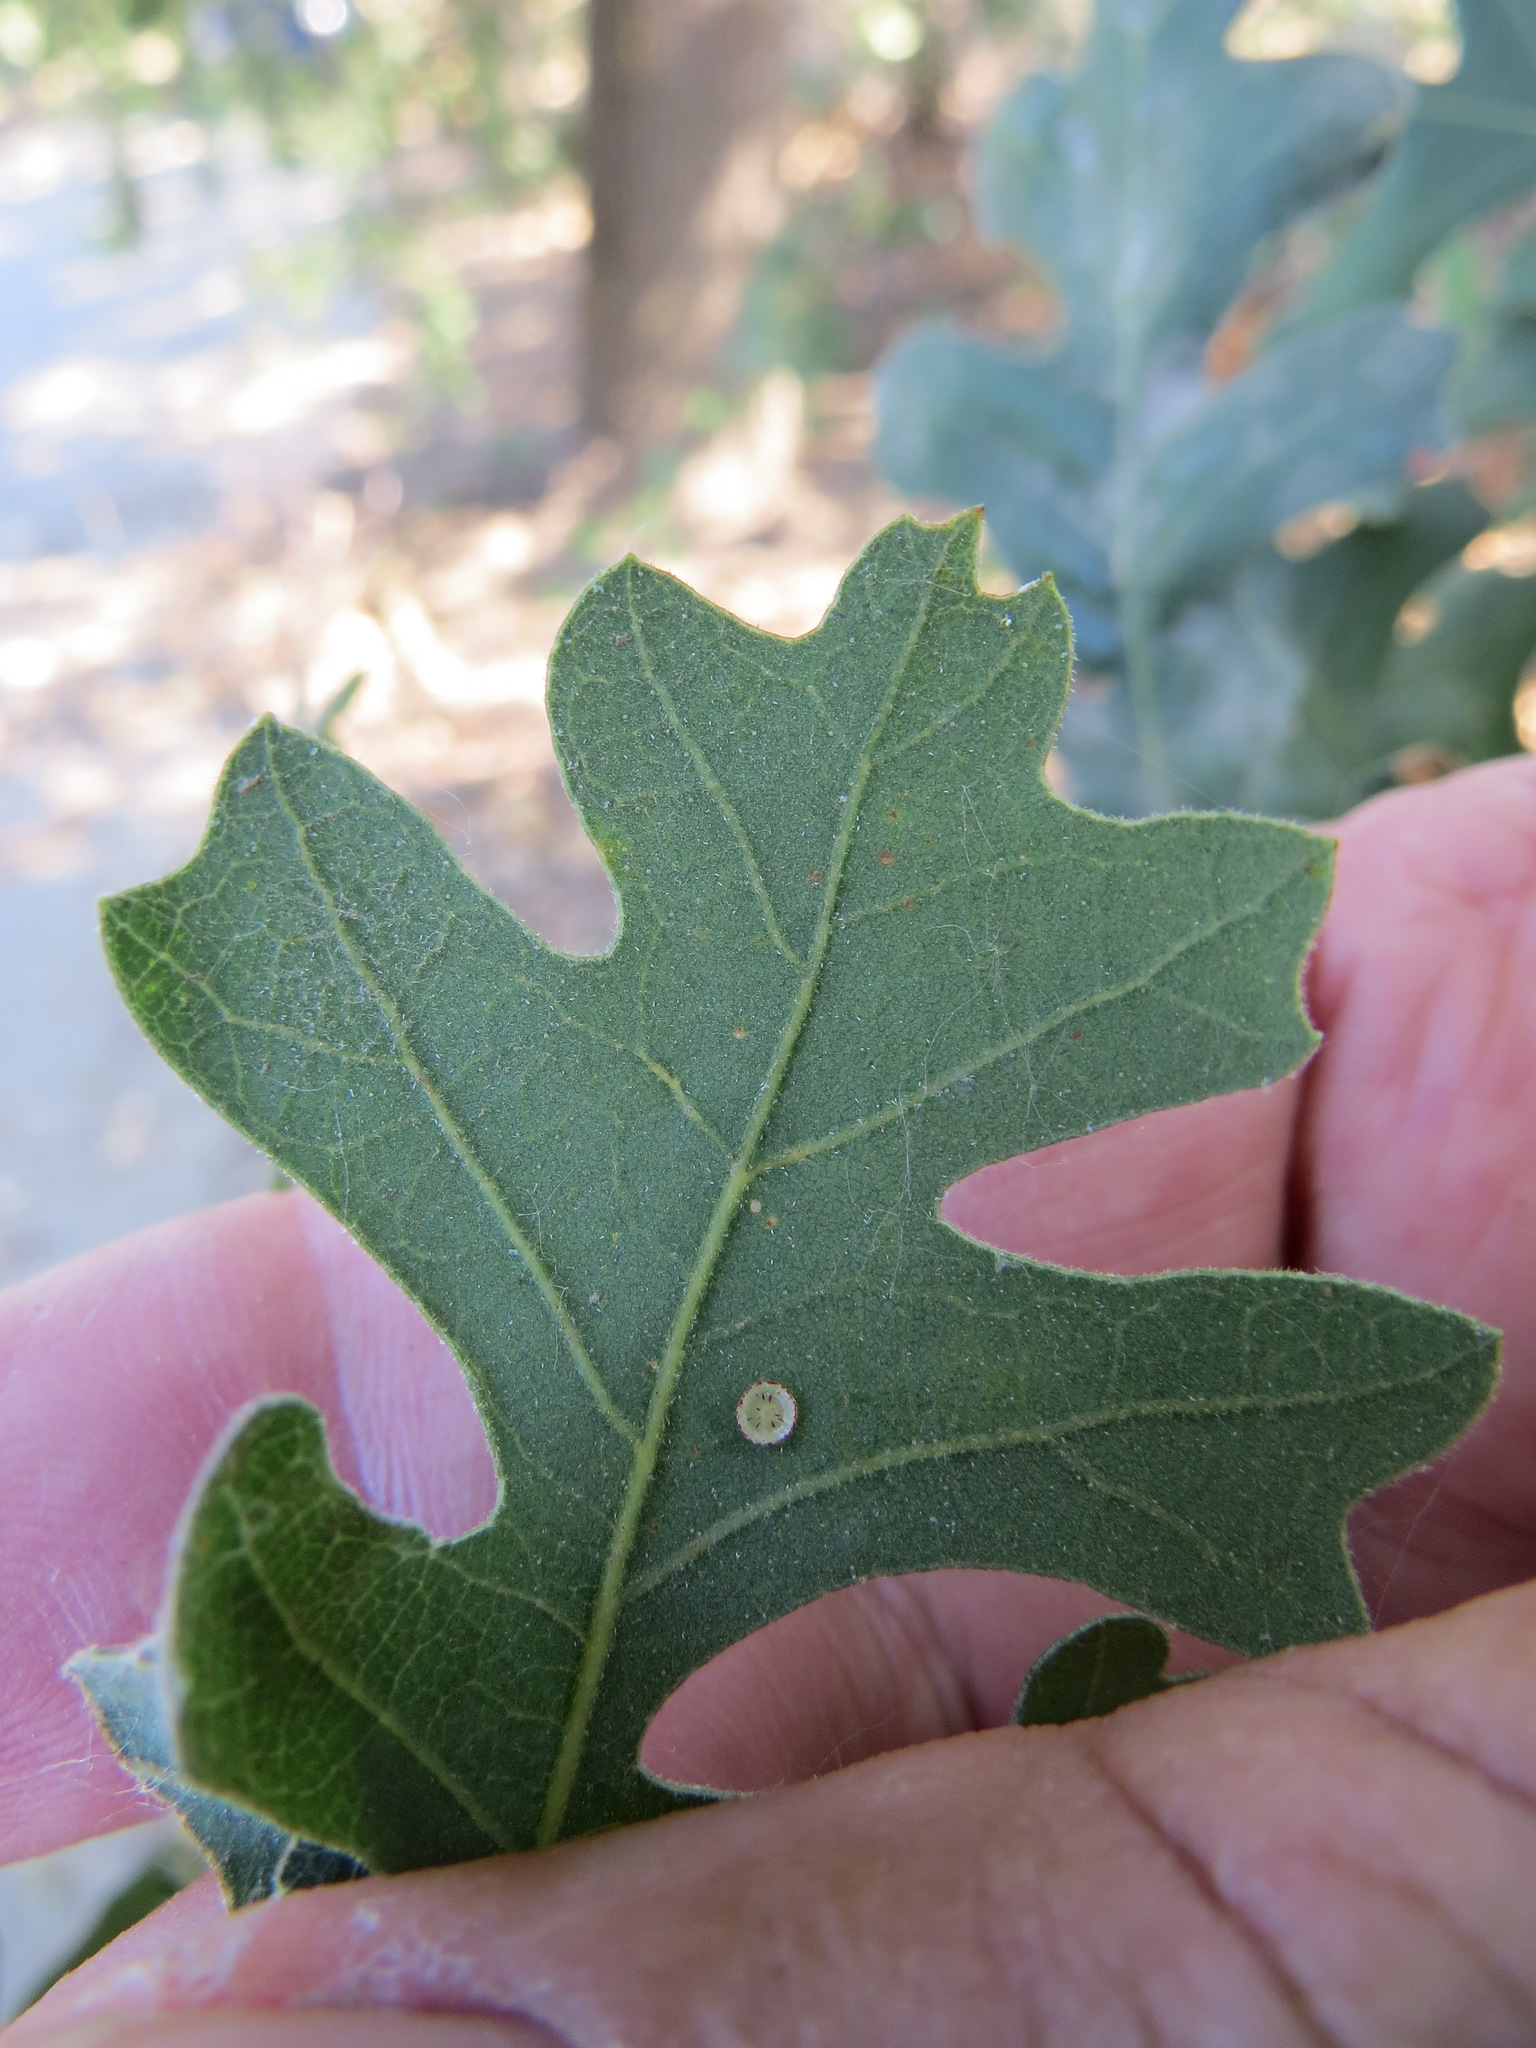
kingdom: Animalia
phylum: Arthropoda
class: Insecta
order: Hymenoptera
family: Cynipidae
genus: Andricus
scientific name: Andricus
